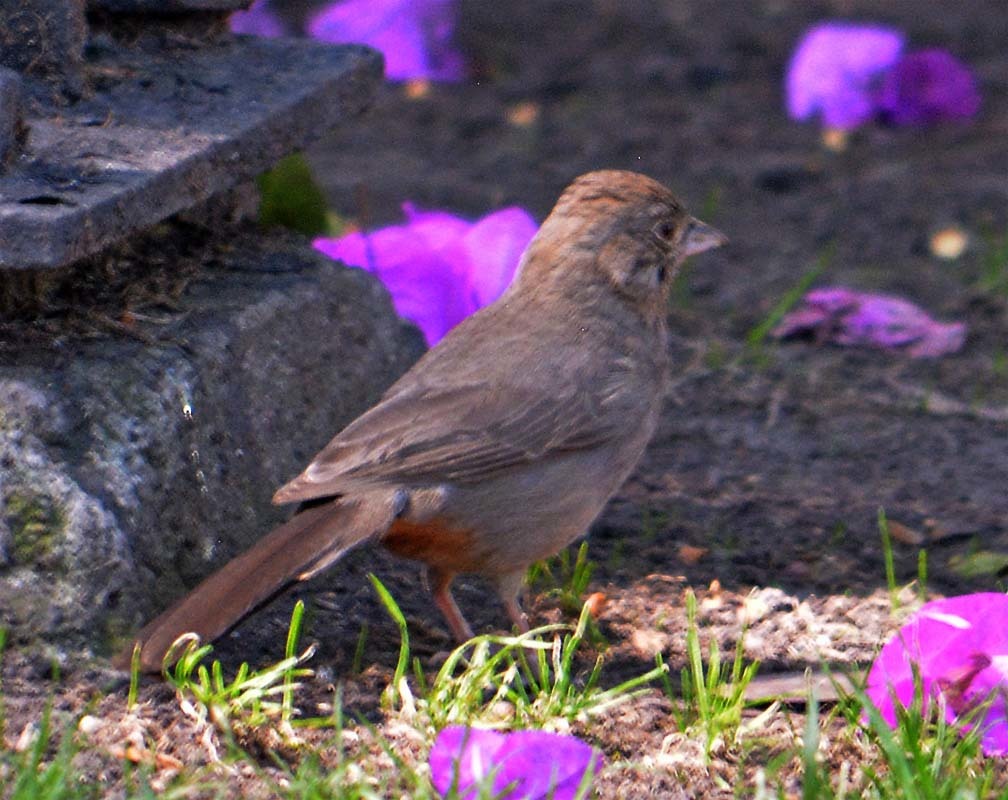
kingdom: Animalia
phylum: Chordata
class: Aves
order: Passeriformes
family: Passerellidae
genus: Melozone
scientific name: Melozone fusca
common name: Canyon towhee
